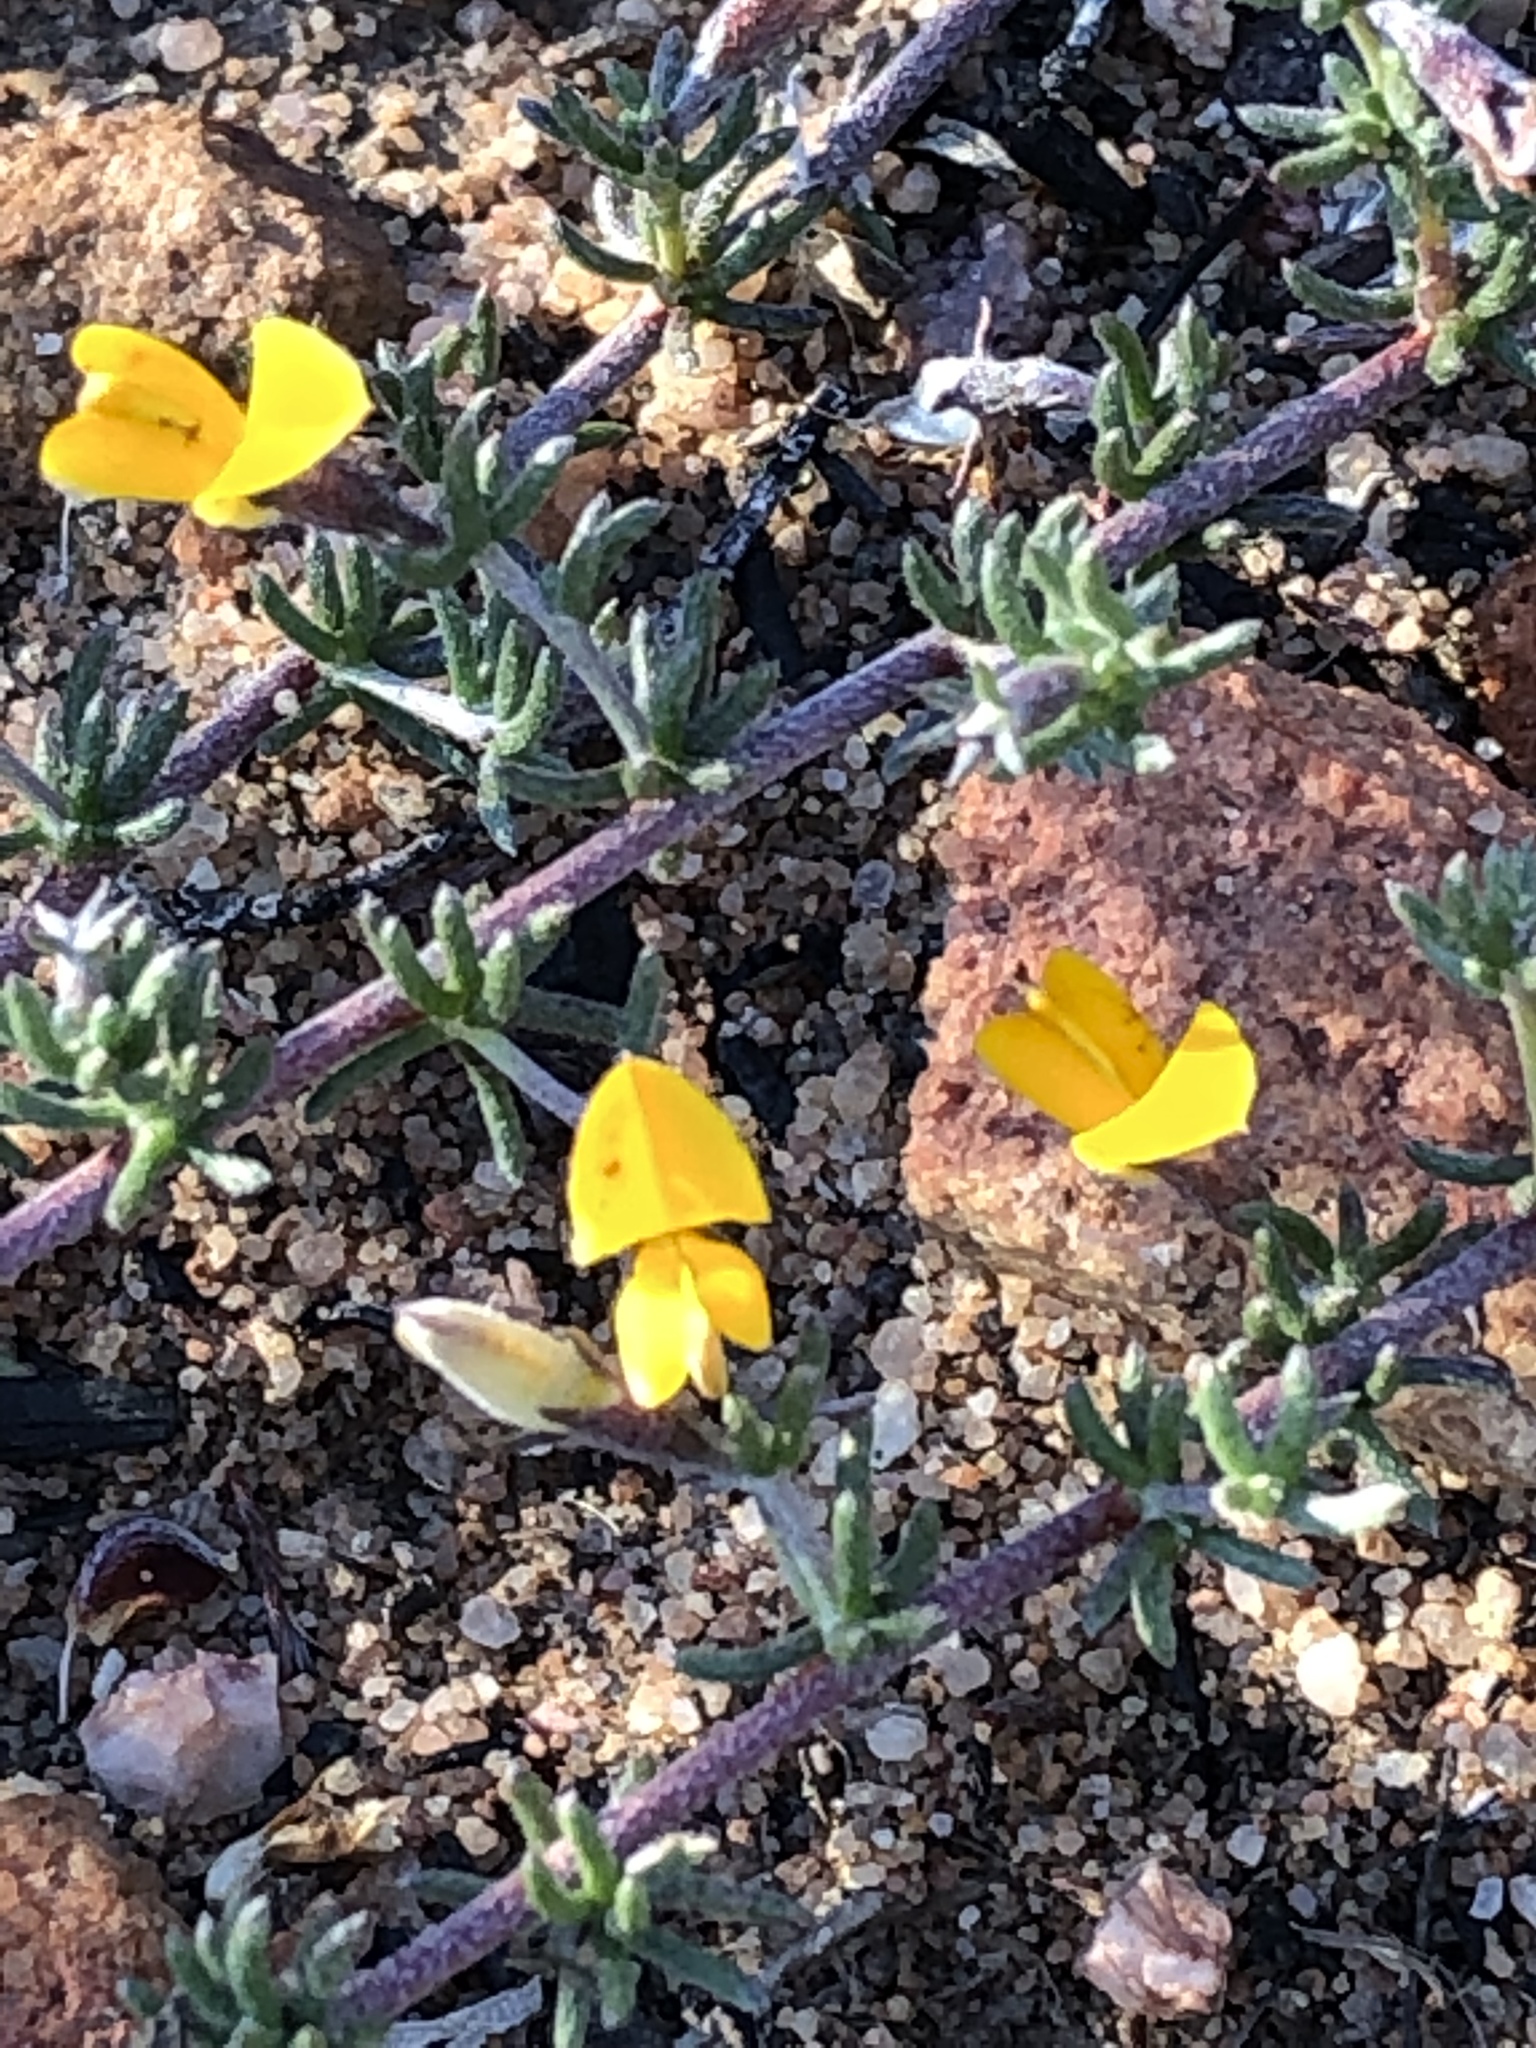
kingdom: Plantae
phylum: Tracheophyta
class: Magnoliopsida
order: Fabales
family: Fabaceae
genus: Aspalathus
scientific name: Aspalathus rubens
